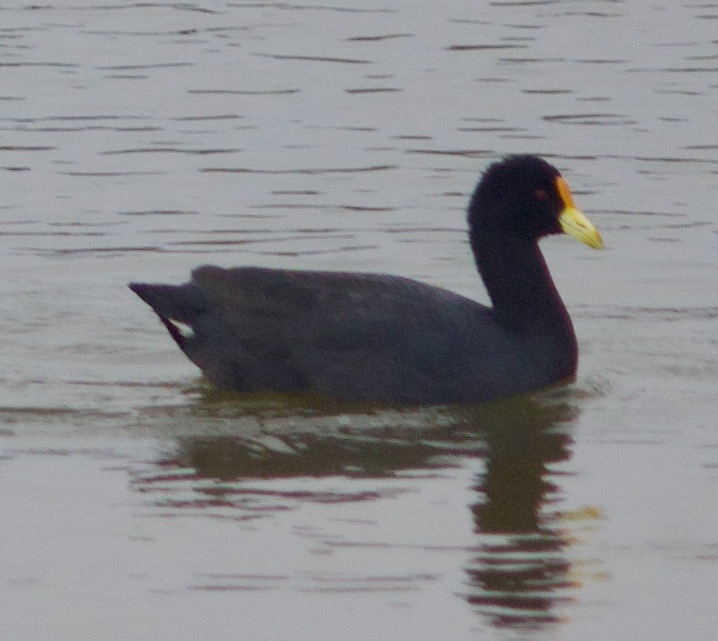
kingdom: Animalia
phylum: Chordata
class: Aves
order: Gruiformes
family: Rallidae
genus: Fulica
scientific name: Fulica leucoptera
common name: White-winged coot
